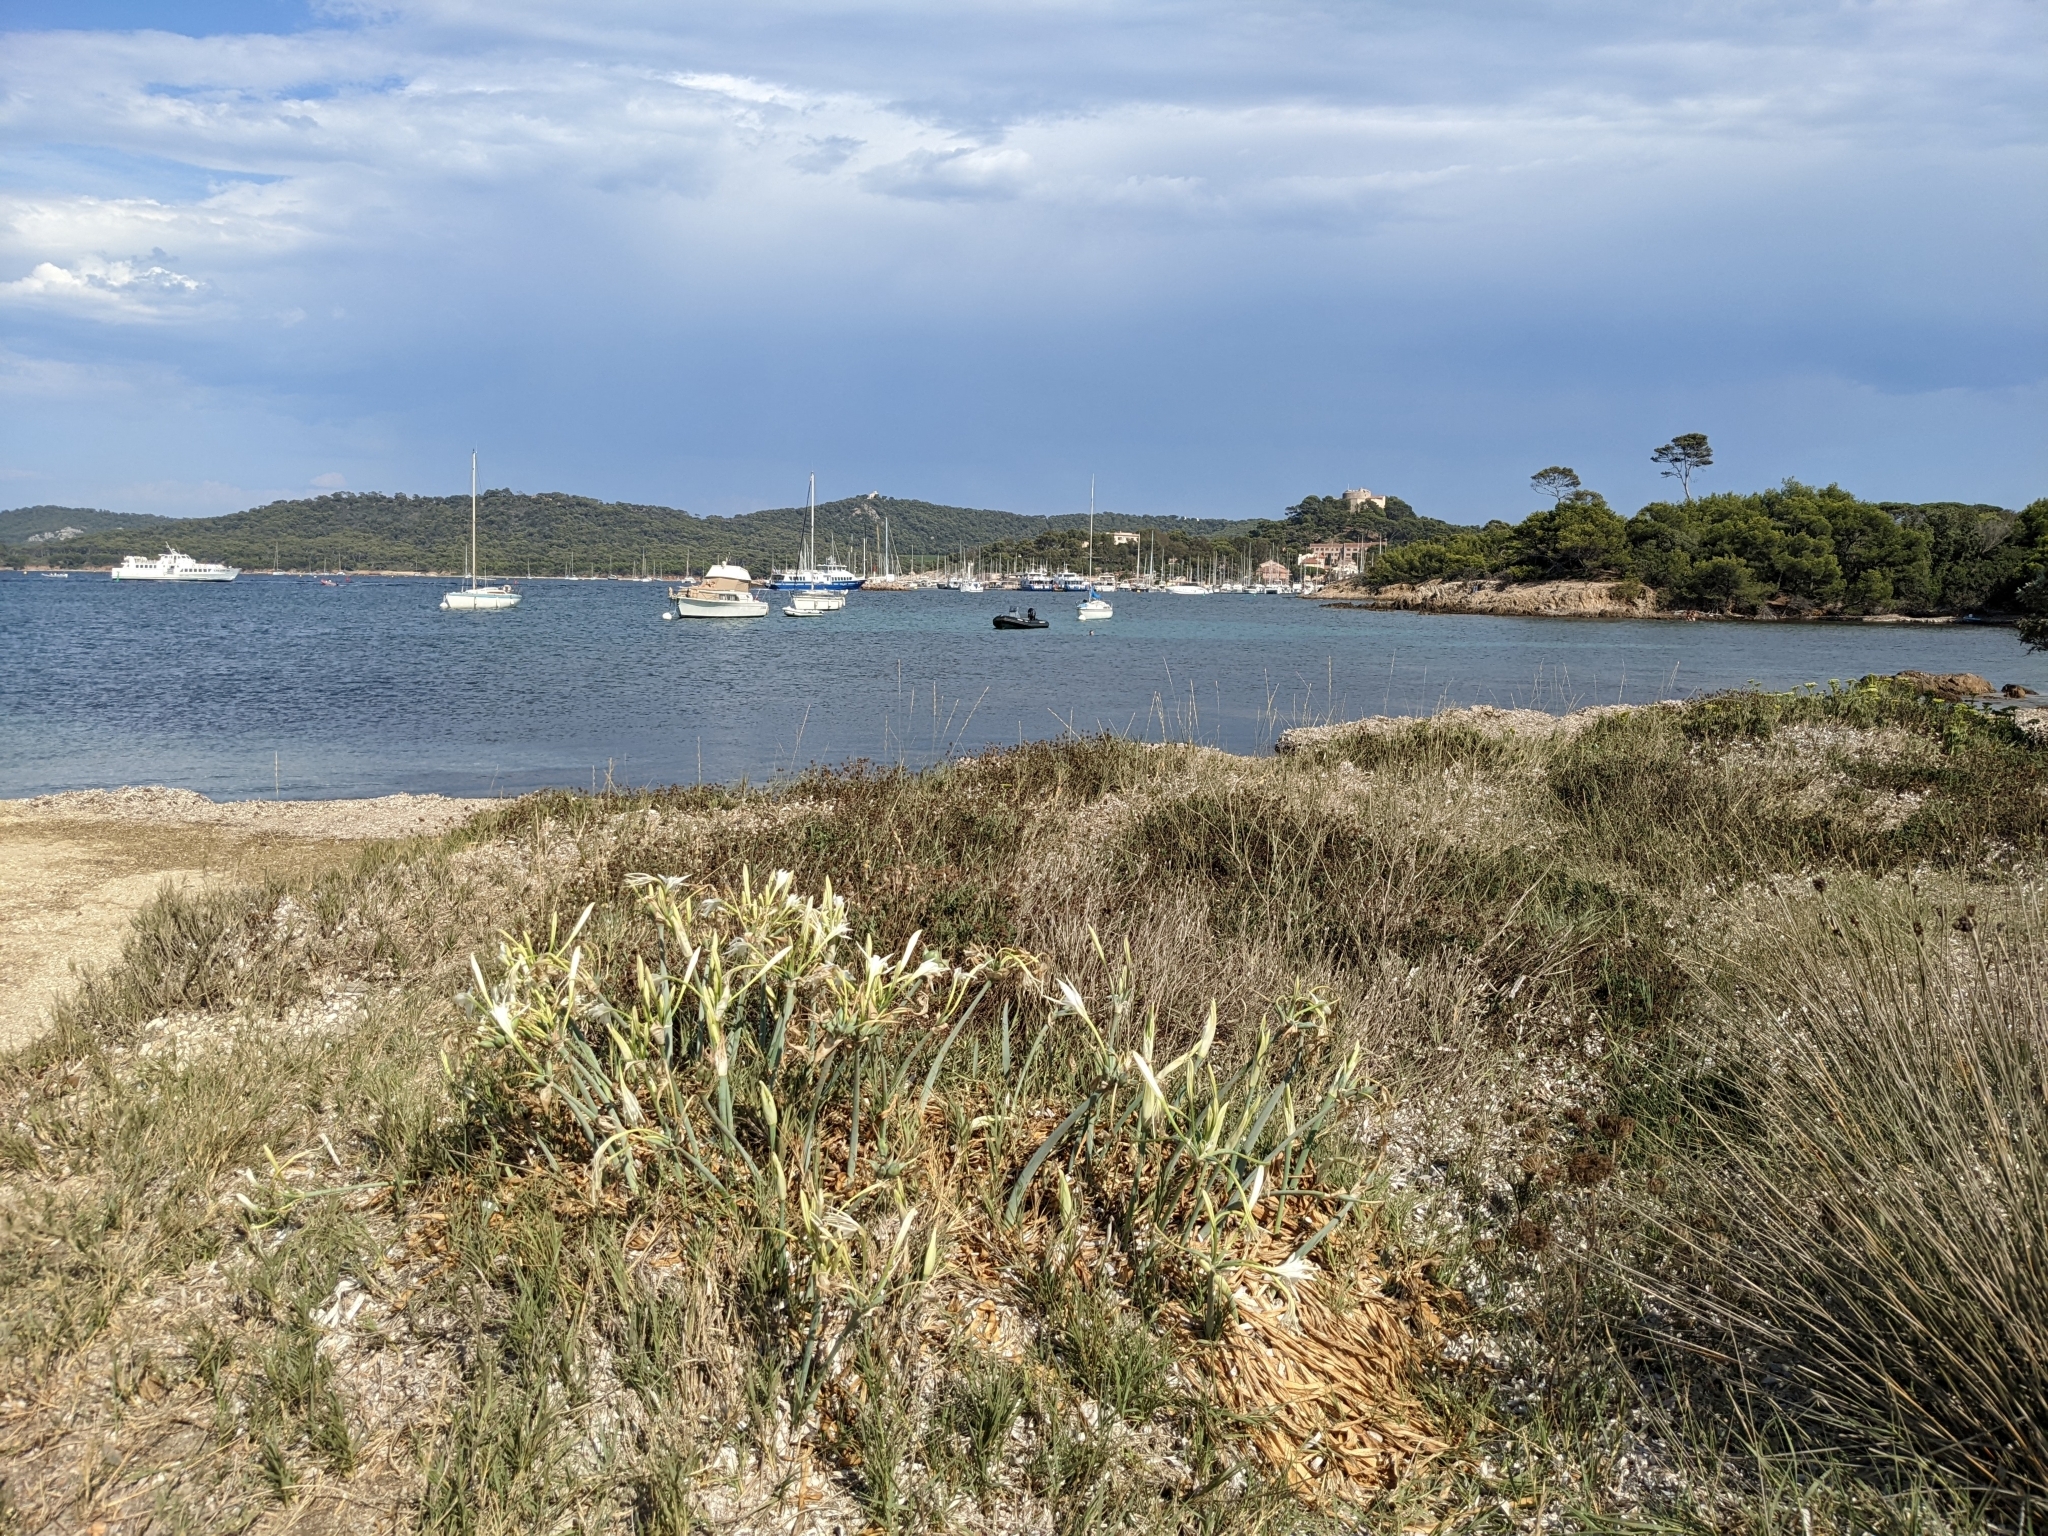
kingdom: Plantae
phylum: Tracheophyta
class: Liliopsida
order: Asparagales
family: Amaryllidaceae
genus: Pancratium
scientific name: Pancratium maritimum
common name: Sea-daffodil
